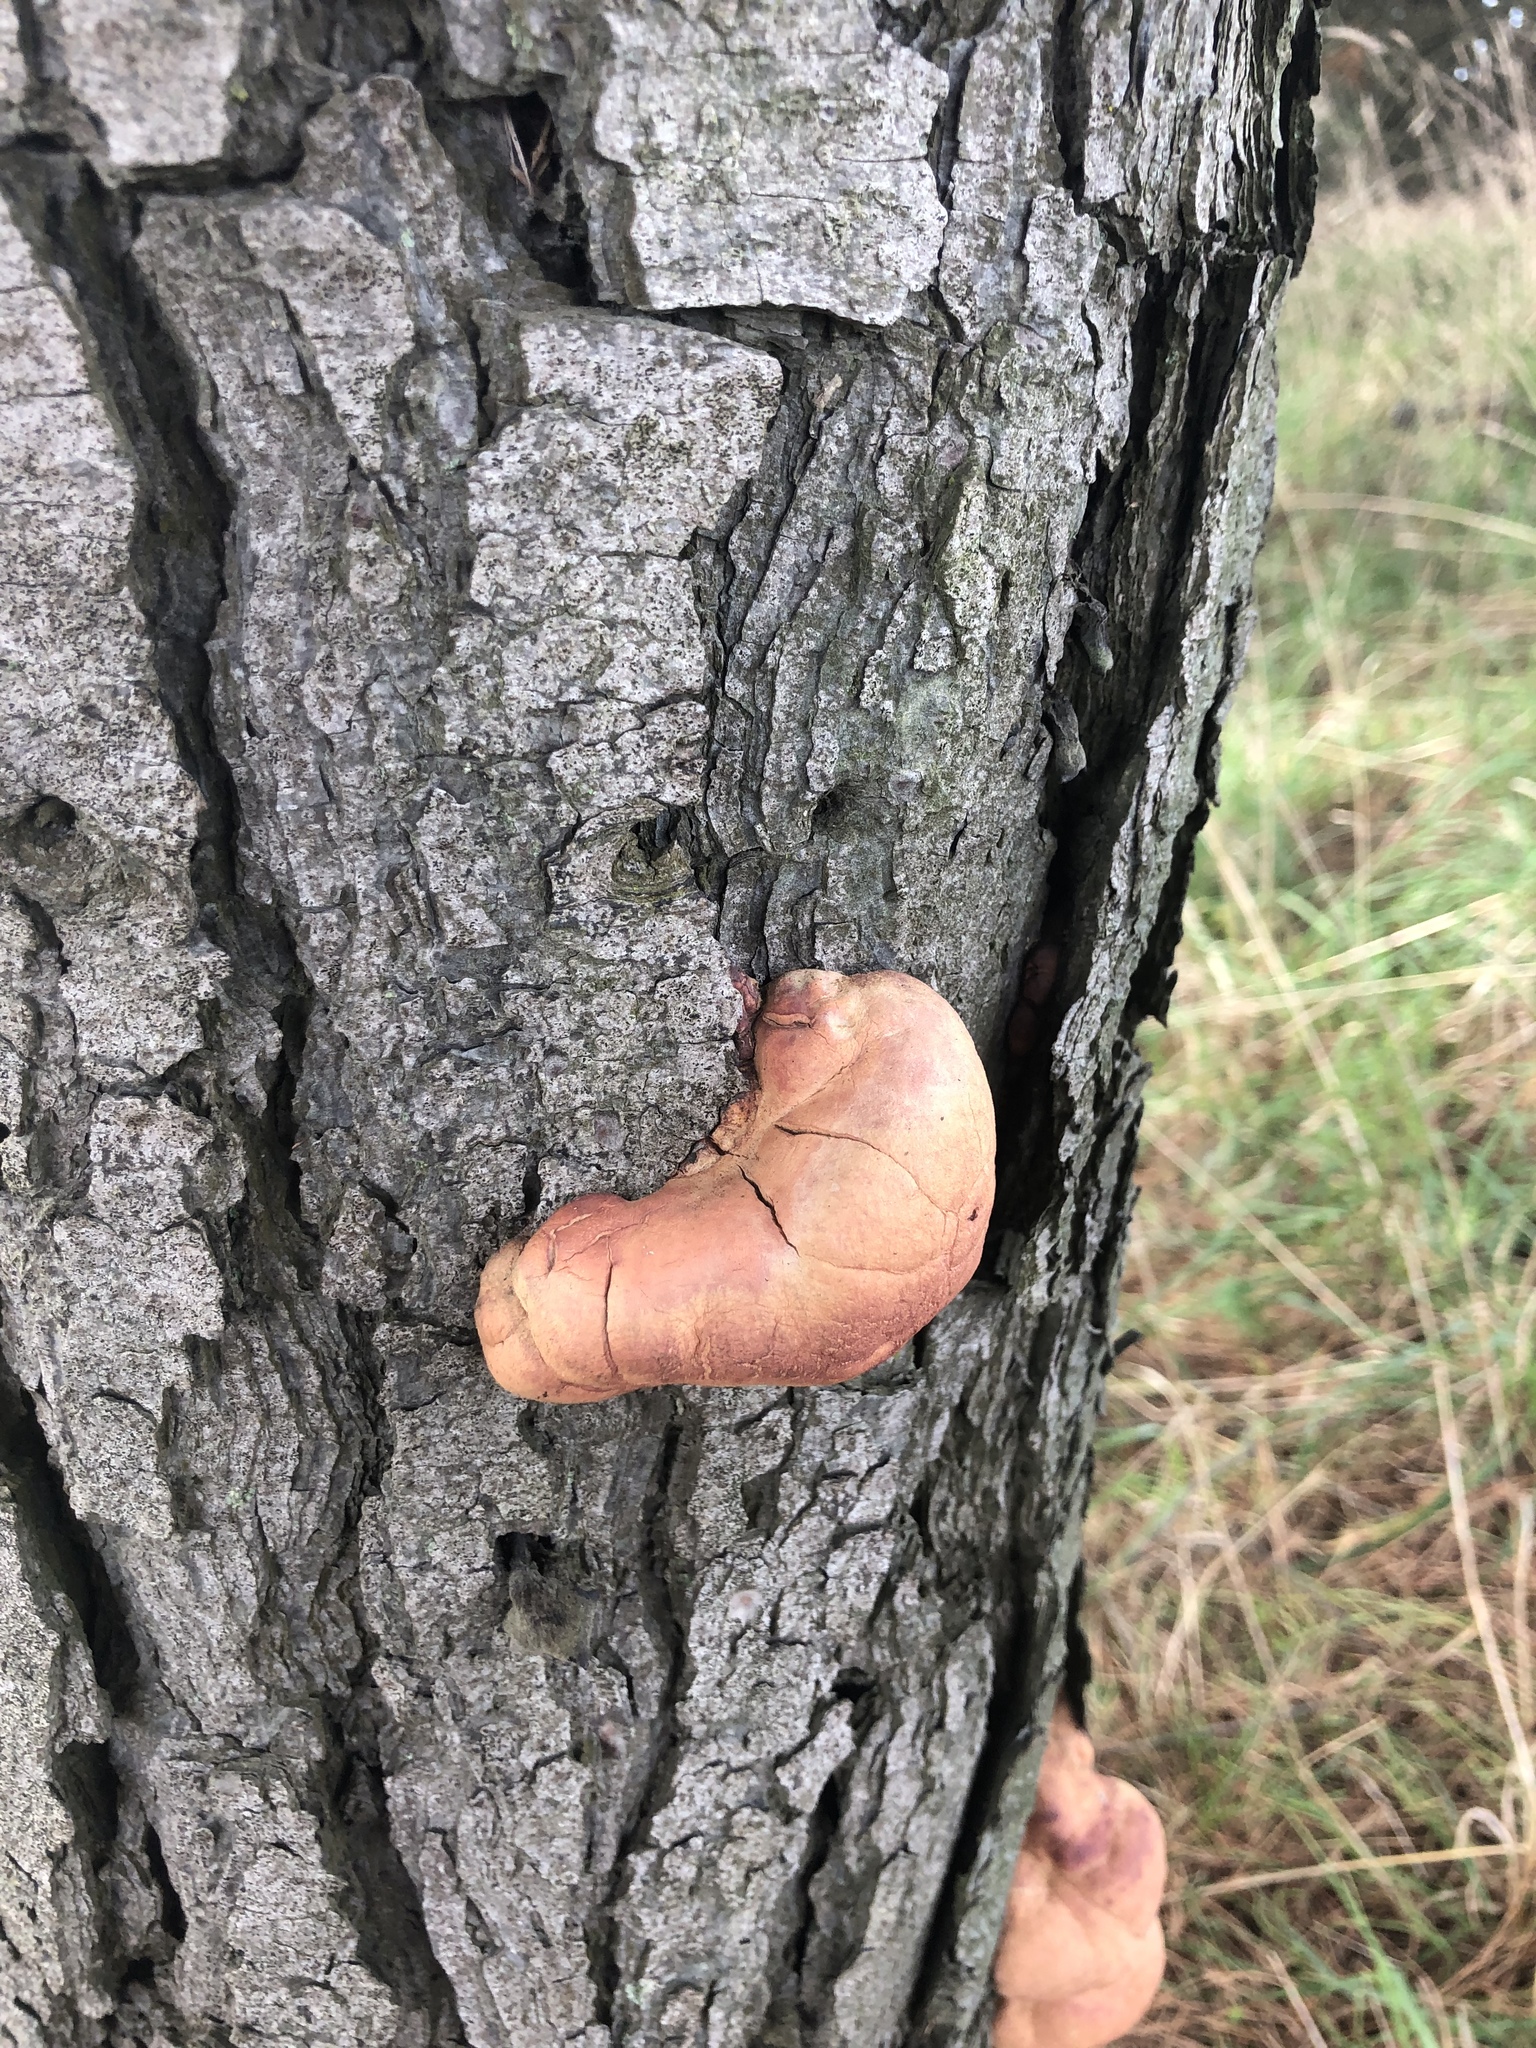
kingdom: Fungi
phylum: Basidiomycota
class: Agaricomycetes
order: Polyporales
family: Polyporaceae
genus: Trametes
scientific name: Trametes coccinea
